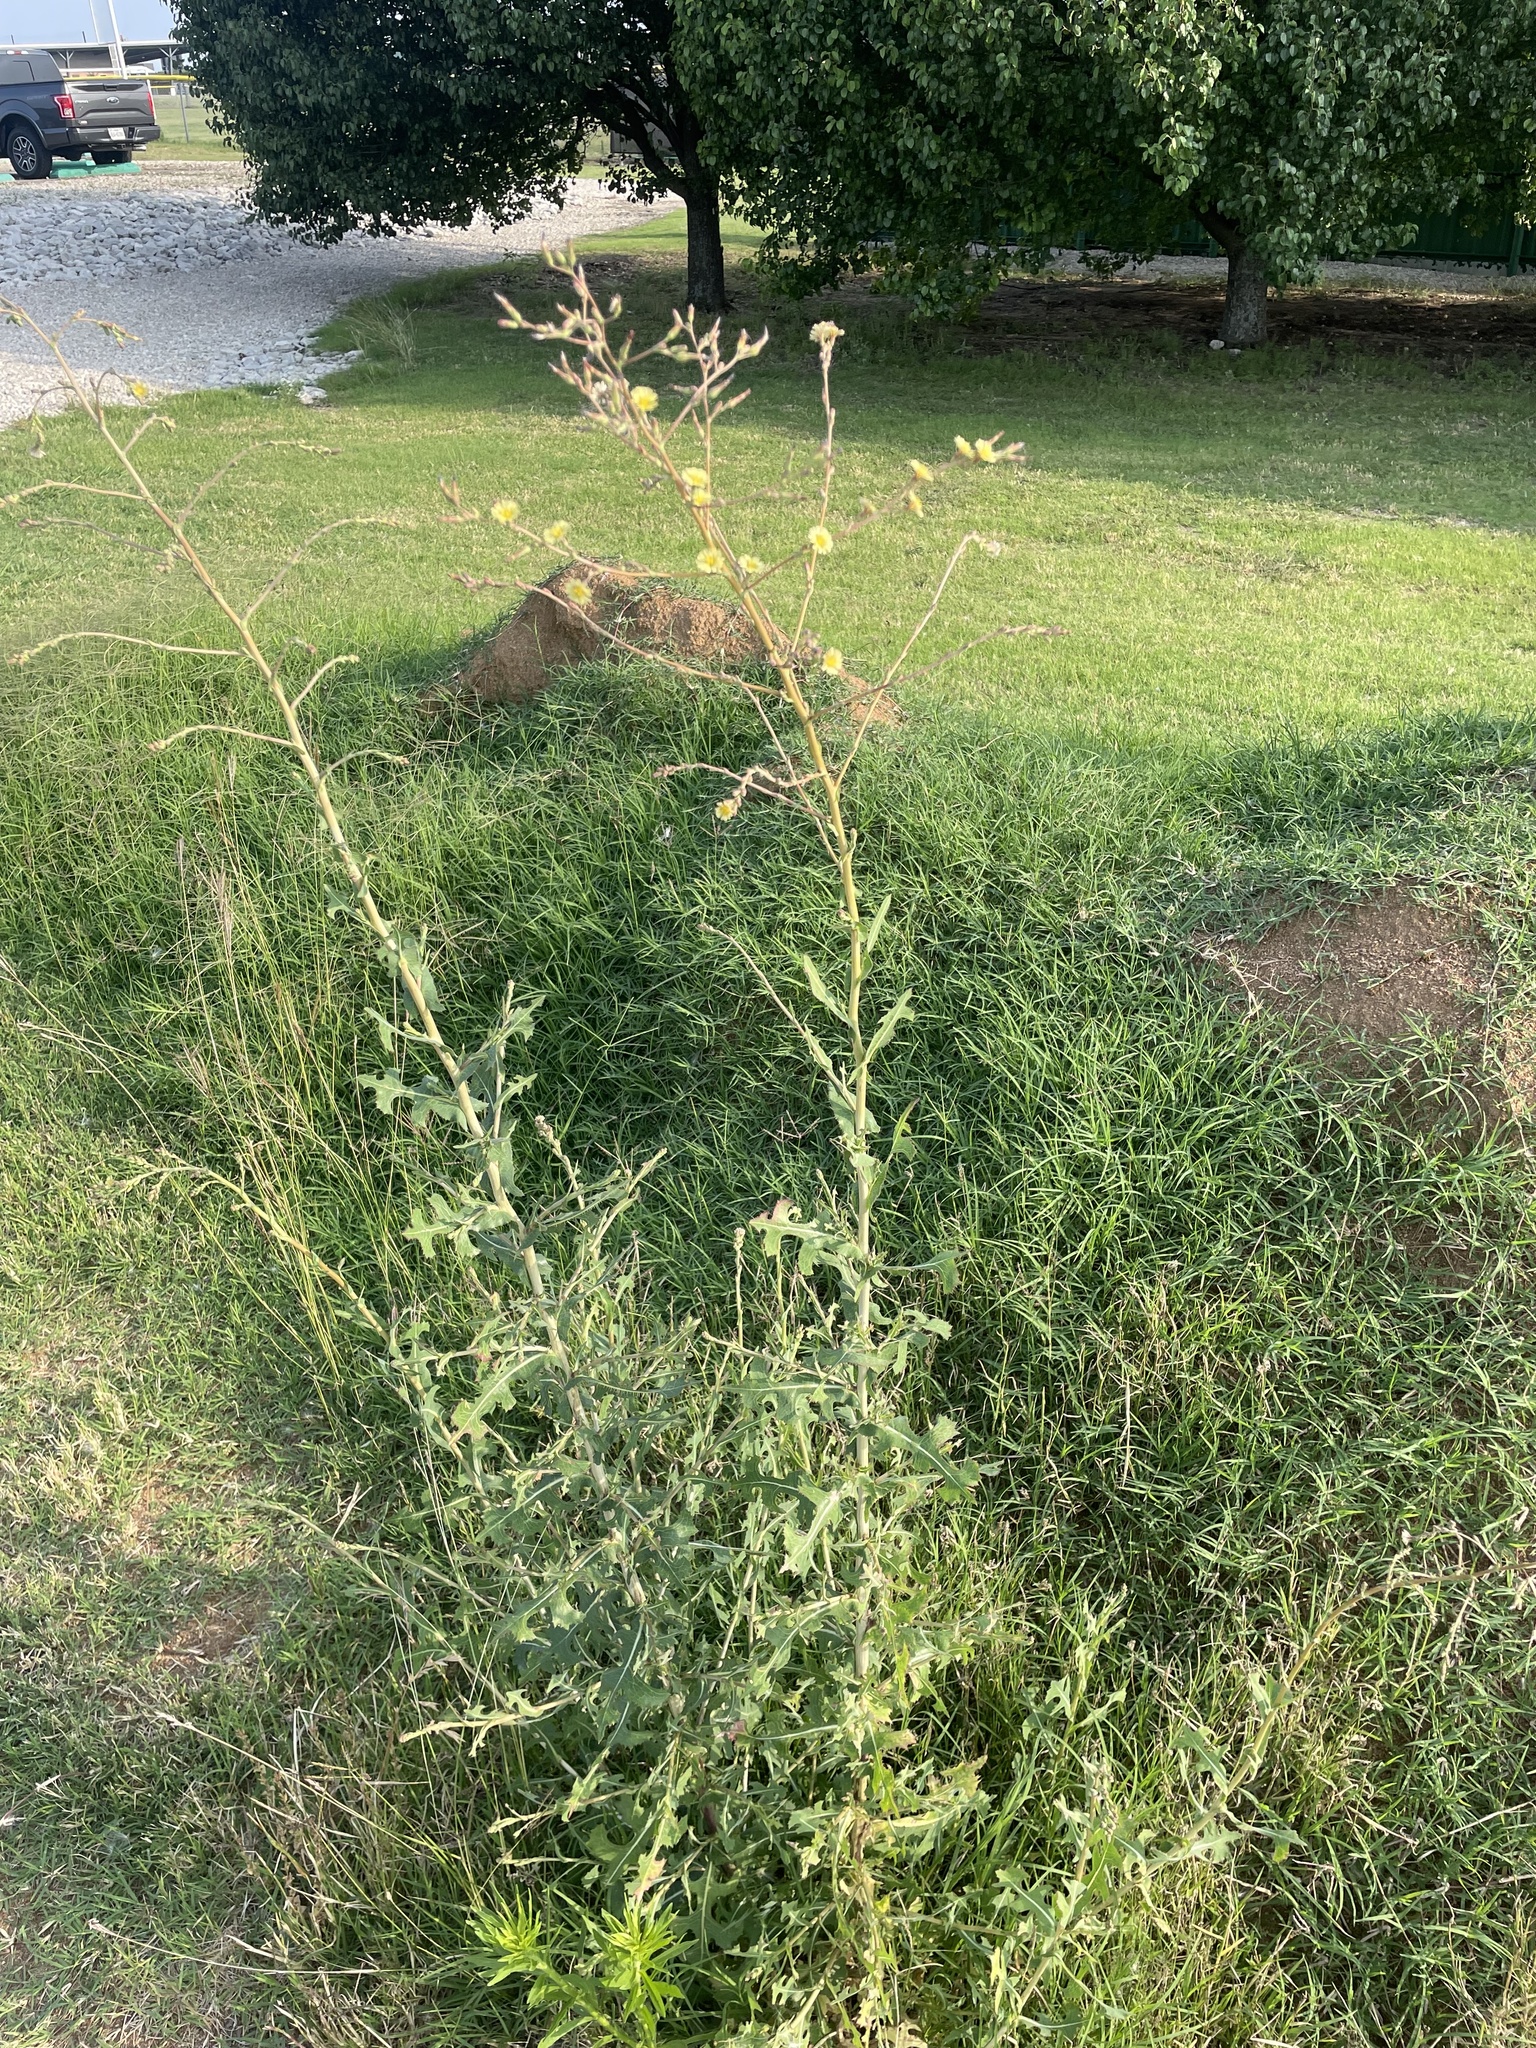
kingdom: Plantae
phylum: Tracheophyta
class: Magnoliopsida
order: Asterales
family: Asteraceae
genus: Lactuca
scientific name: Lactuca serriola
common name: Prickly lettuce
